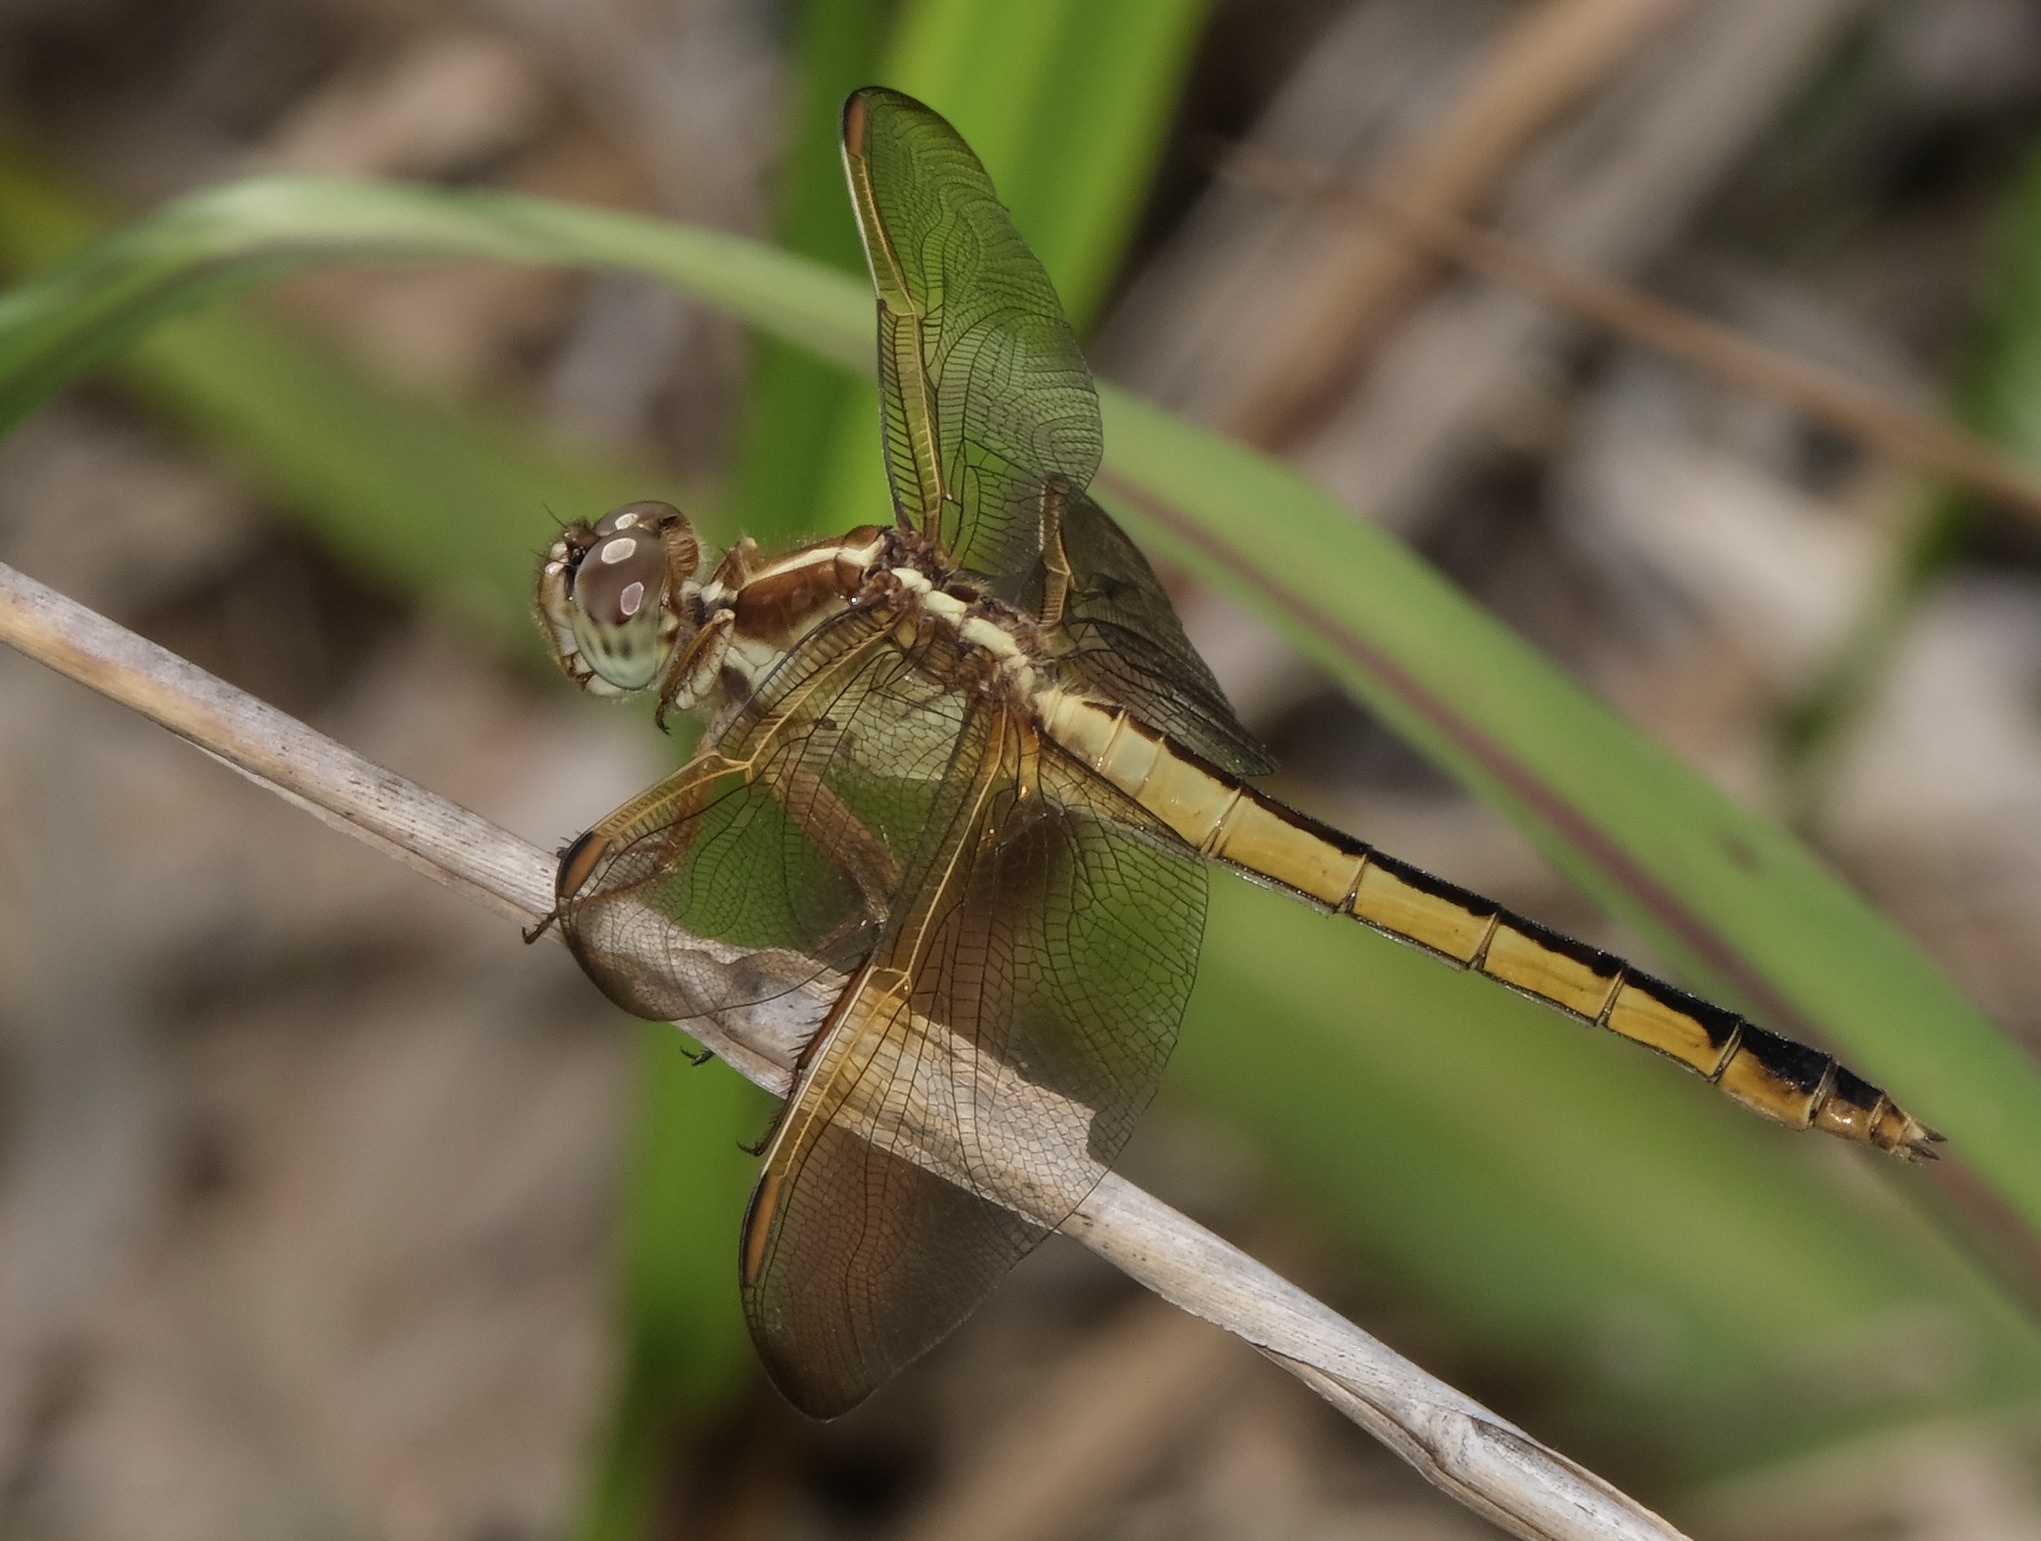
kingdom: Animalia
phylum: Arthropoda
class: Insecta
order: Odonata
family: Libellulidae
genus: Libellula
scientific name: Libellula needhami
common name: Needham's skimmer
